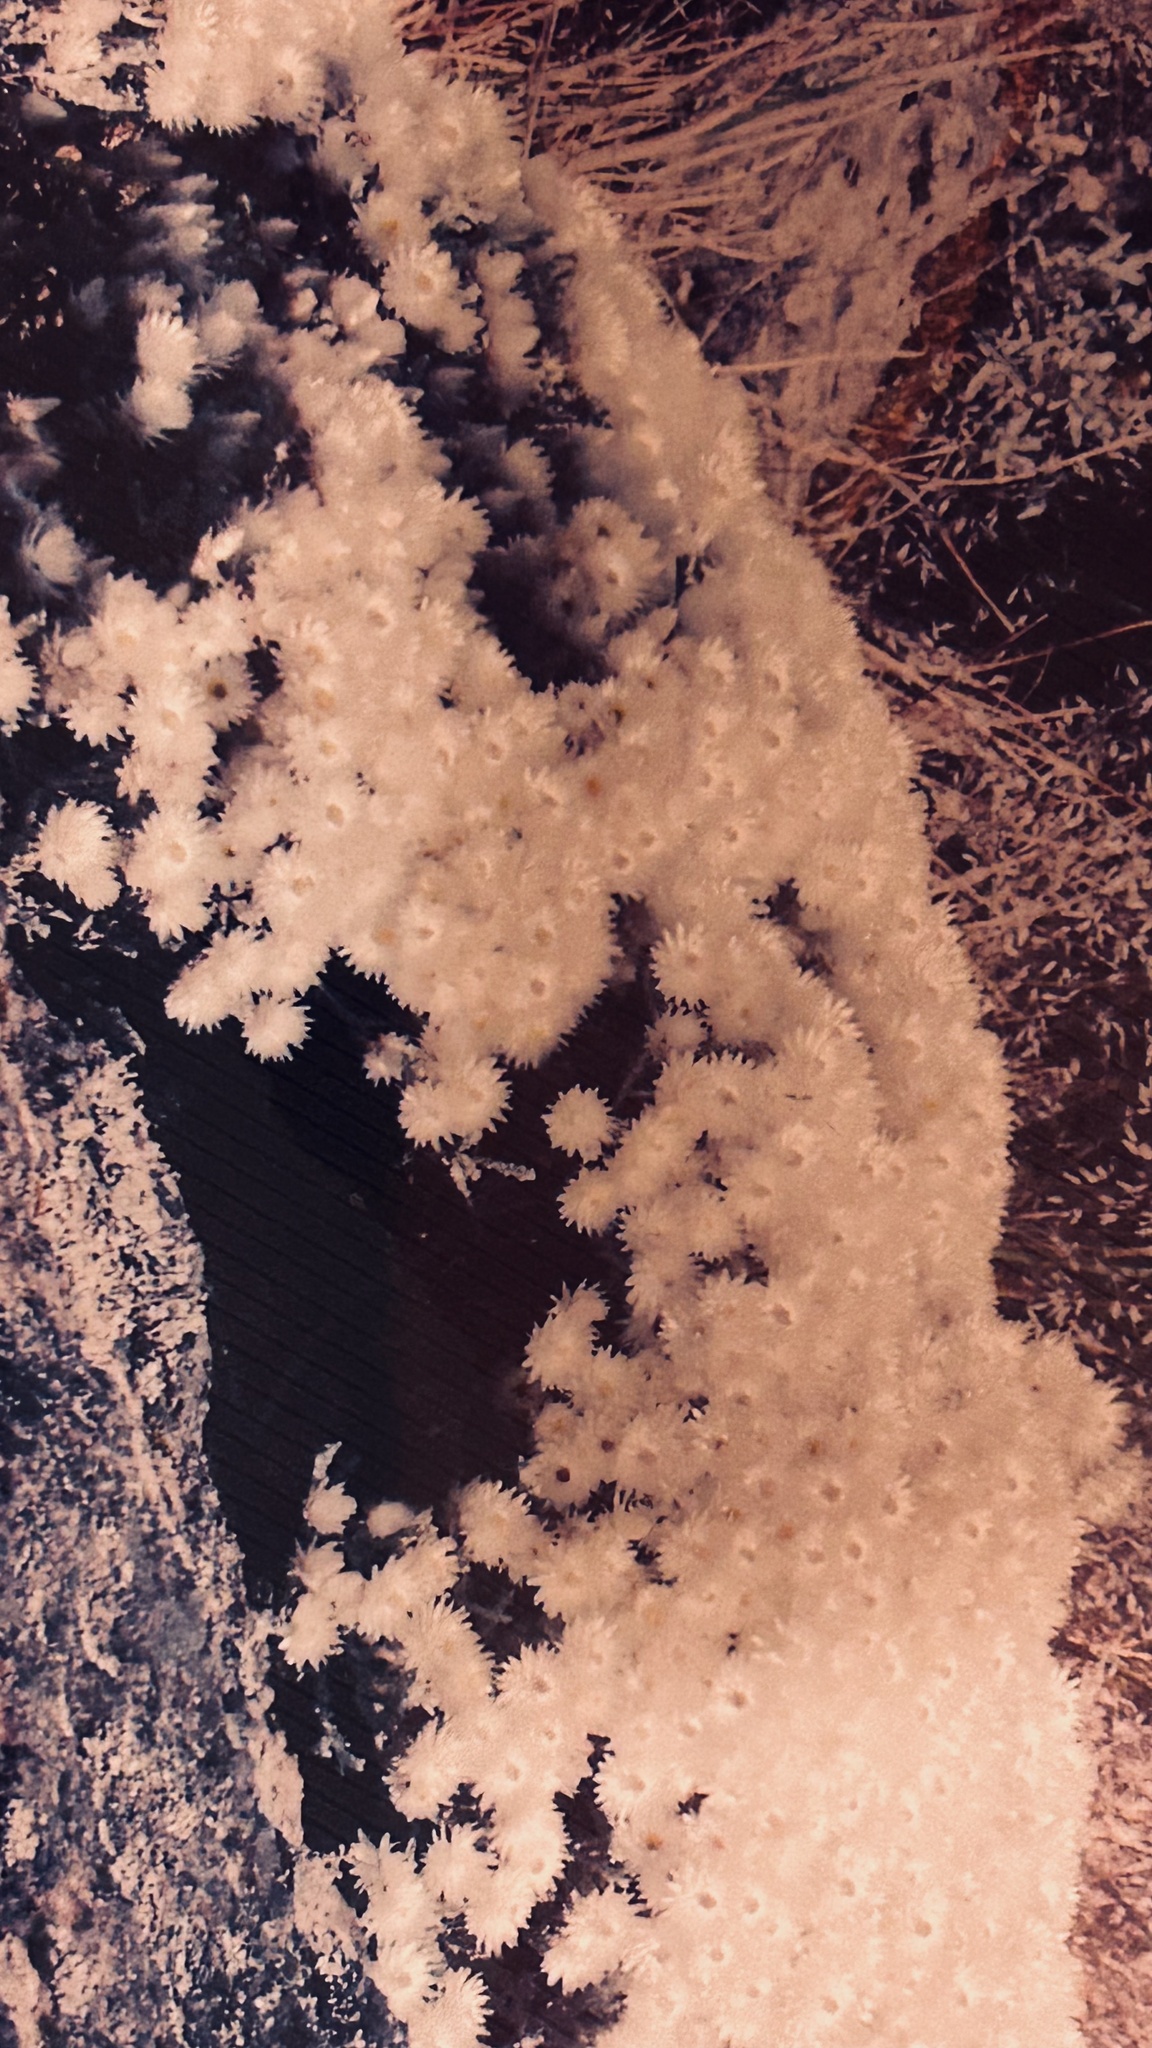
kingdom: Plantae
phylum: Tracheophyta
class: Magnoliopsida
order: Asterales
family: Asteraceae
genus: Helichrysum
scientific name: Helichrysum citrispinum
